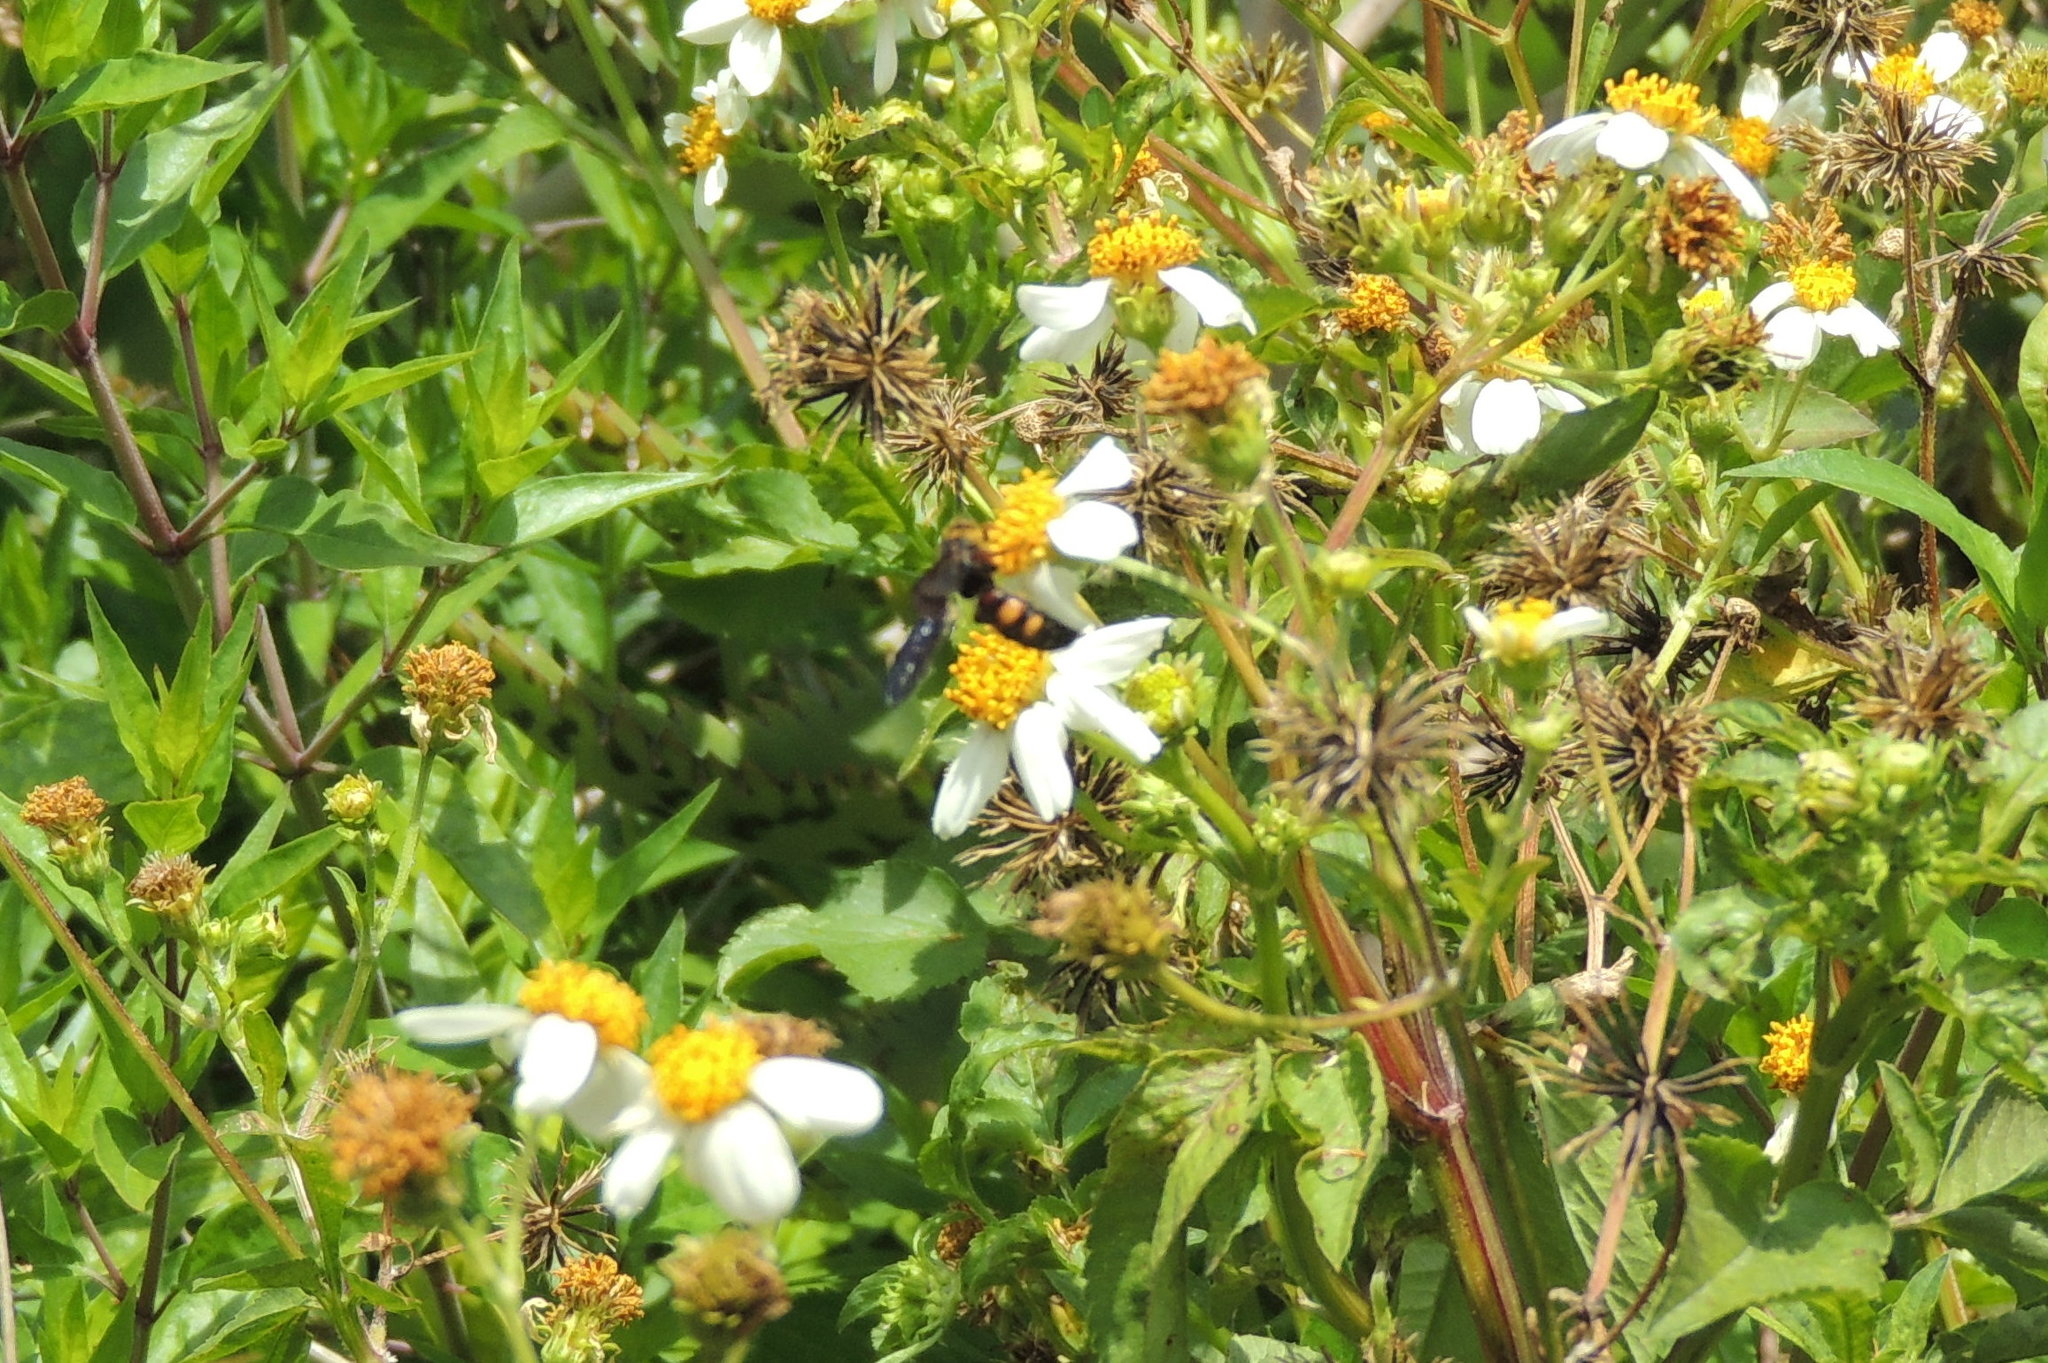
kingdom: Animalia
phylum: Arthropoda
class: Insecta
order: Hymenoptera
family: Scoliidae
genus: Scolia
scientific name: Scolia nobilitata
